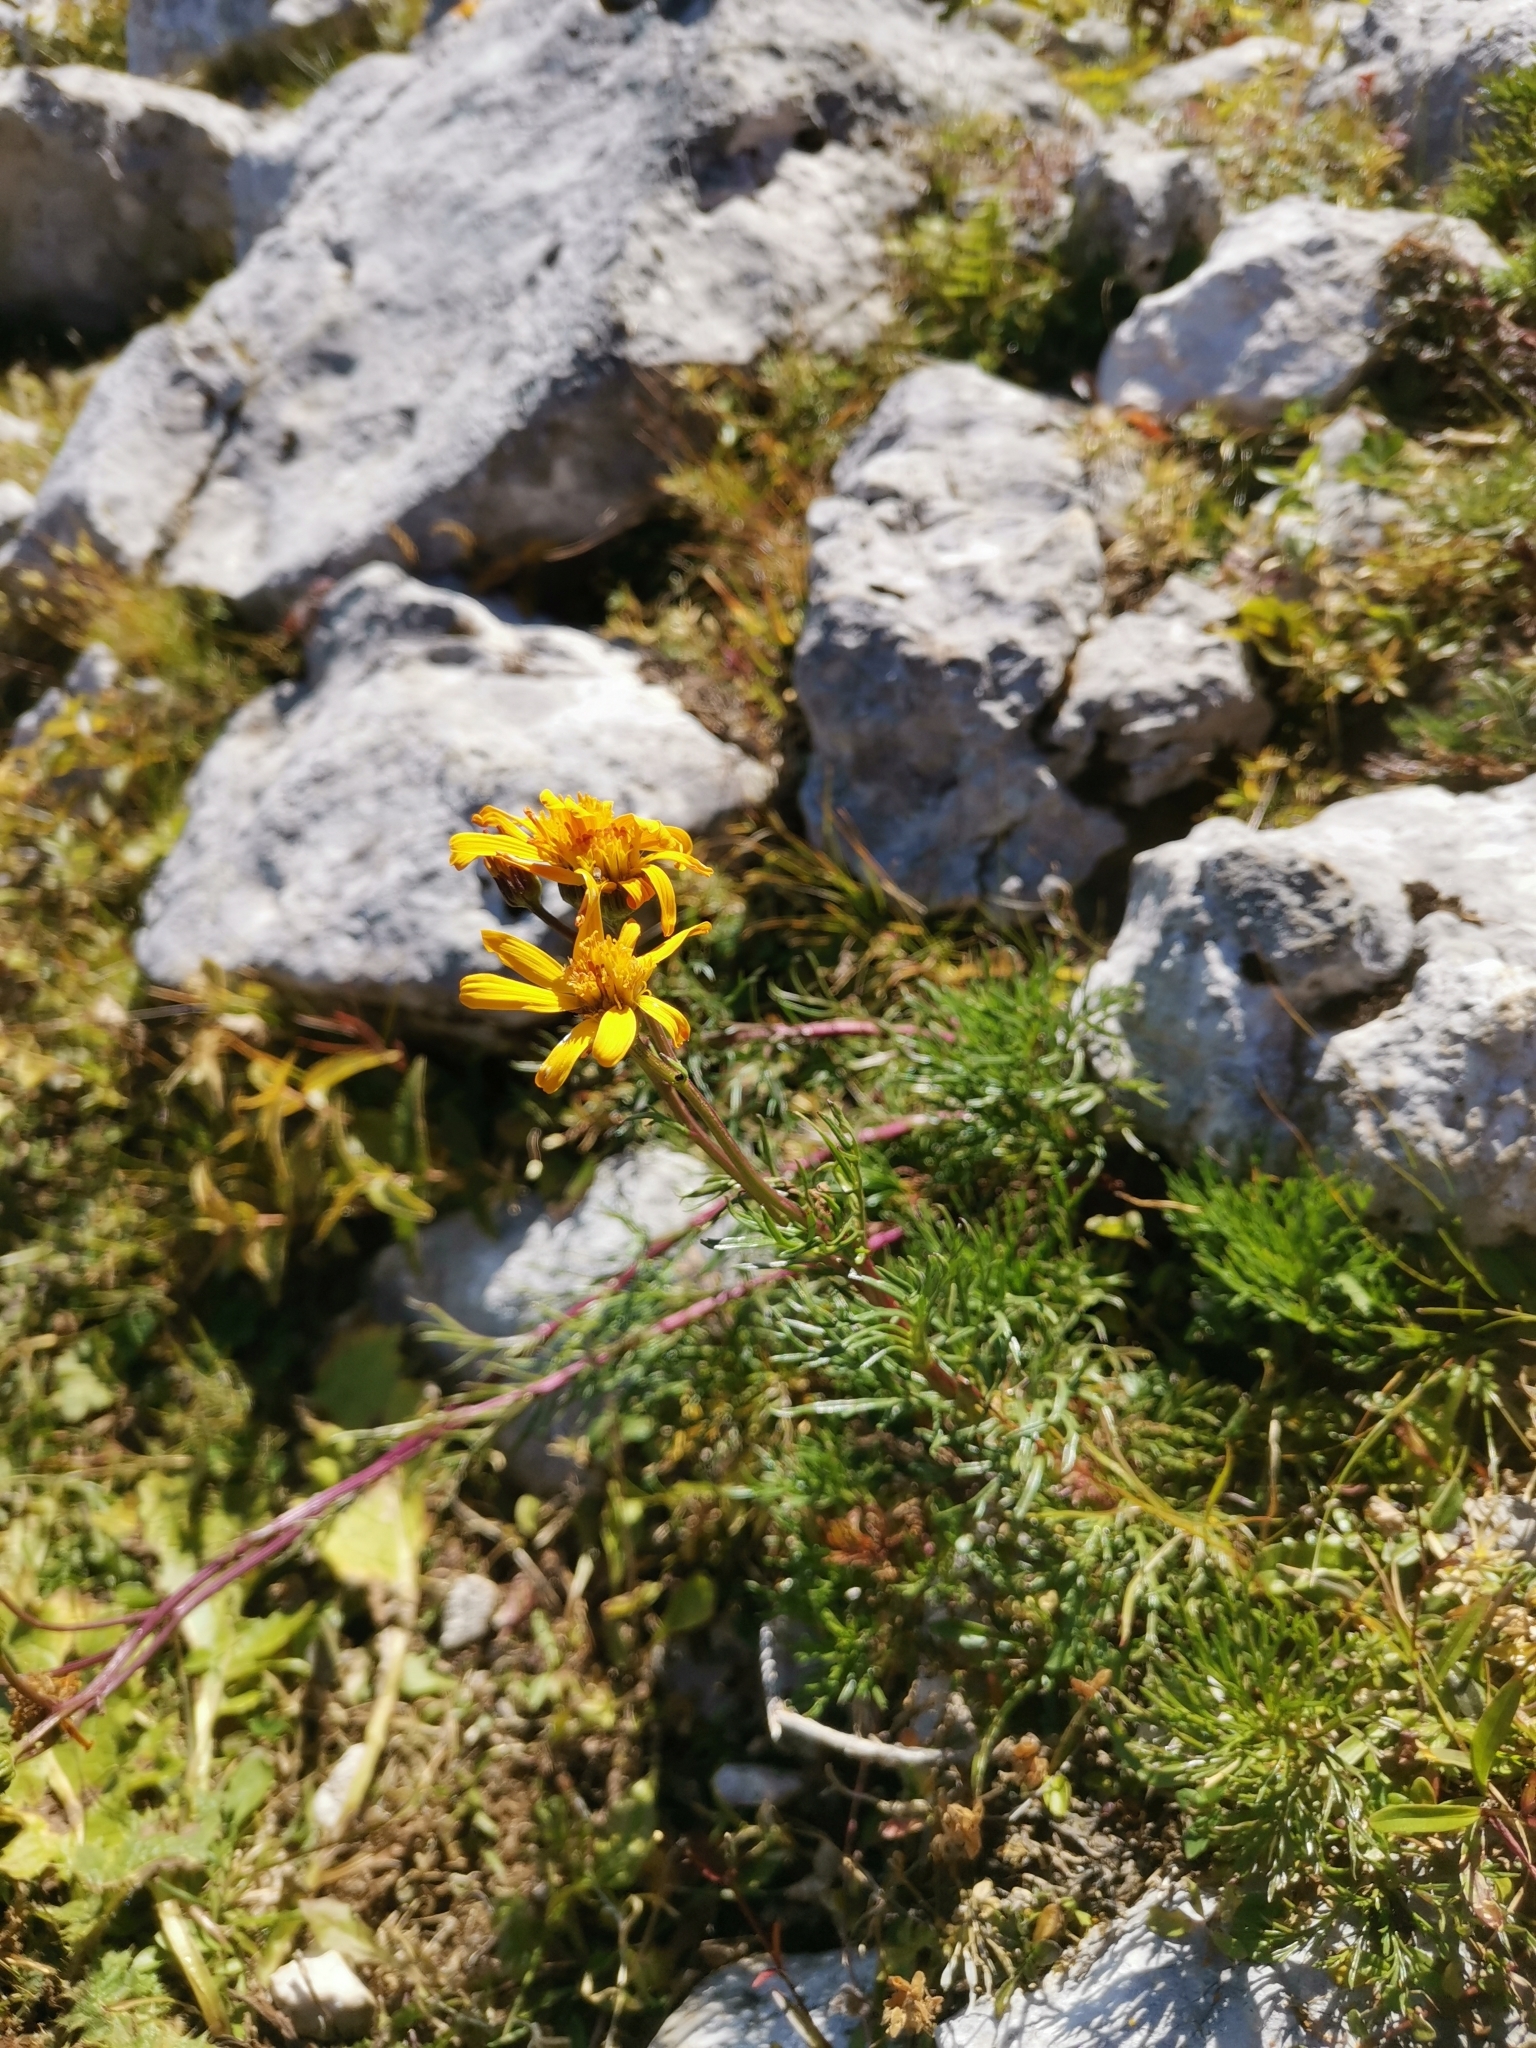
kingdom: Plantae
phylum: Tracheophyta
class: Magnoliopsida
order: Asterales
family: Asteraceae
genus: Jacobaea
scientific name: Jacobaea abrotanifolia
